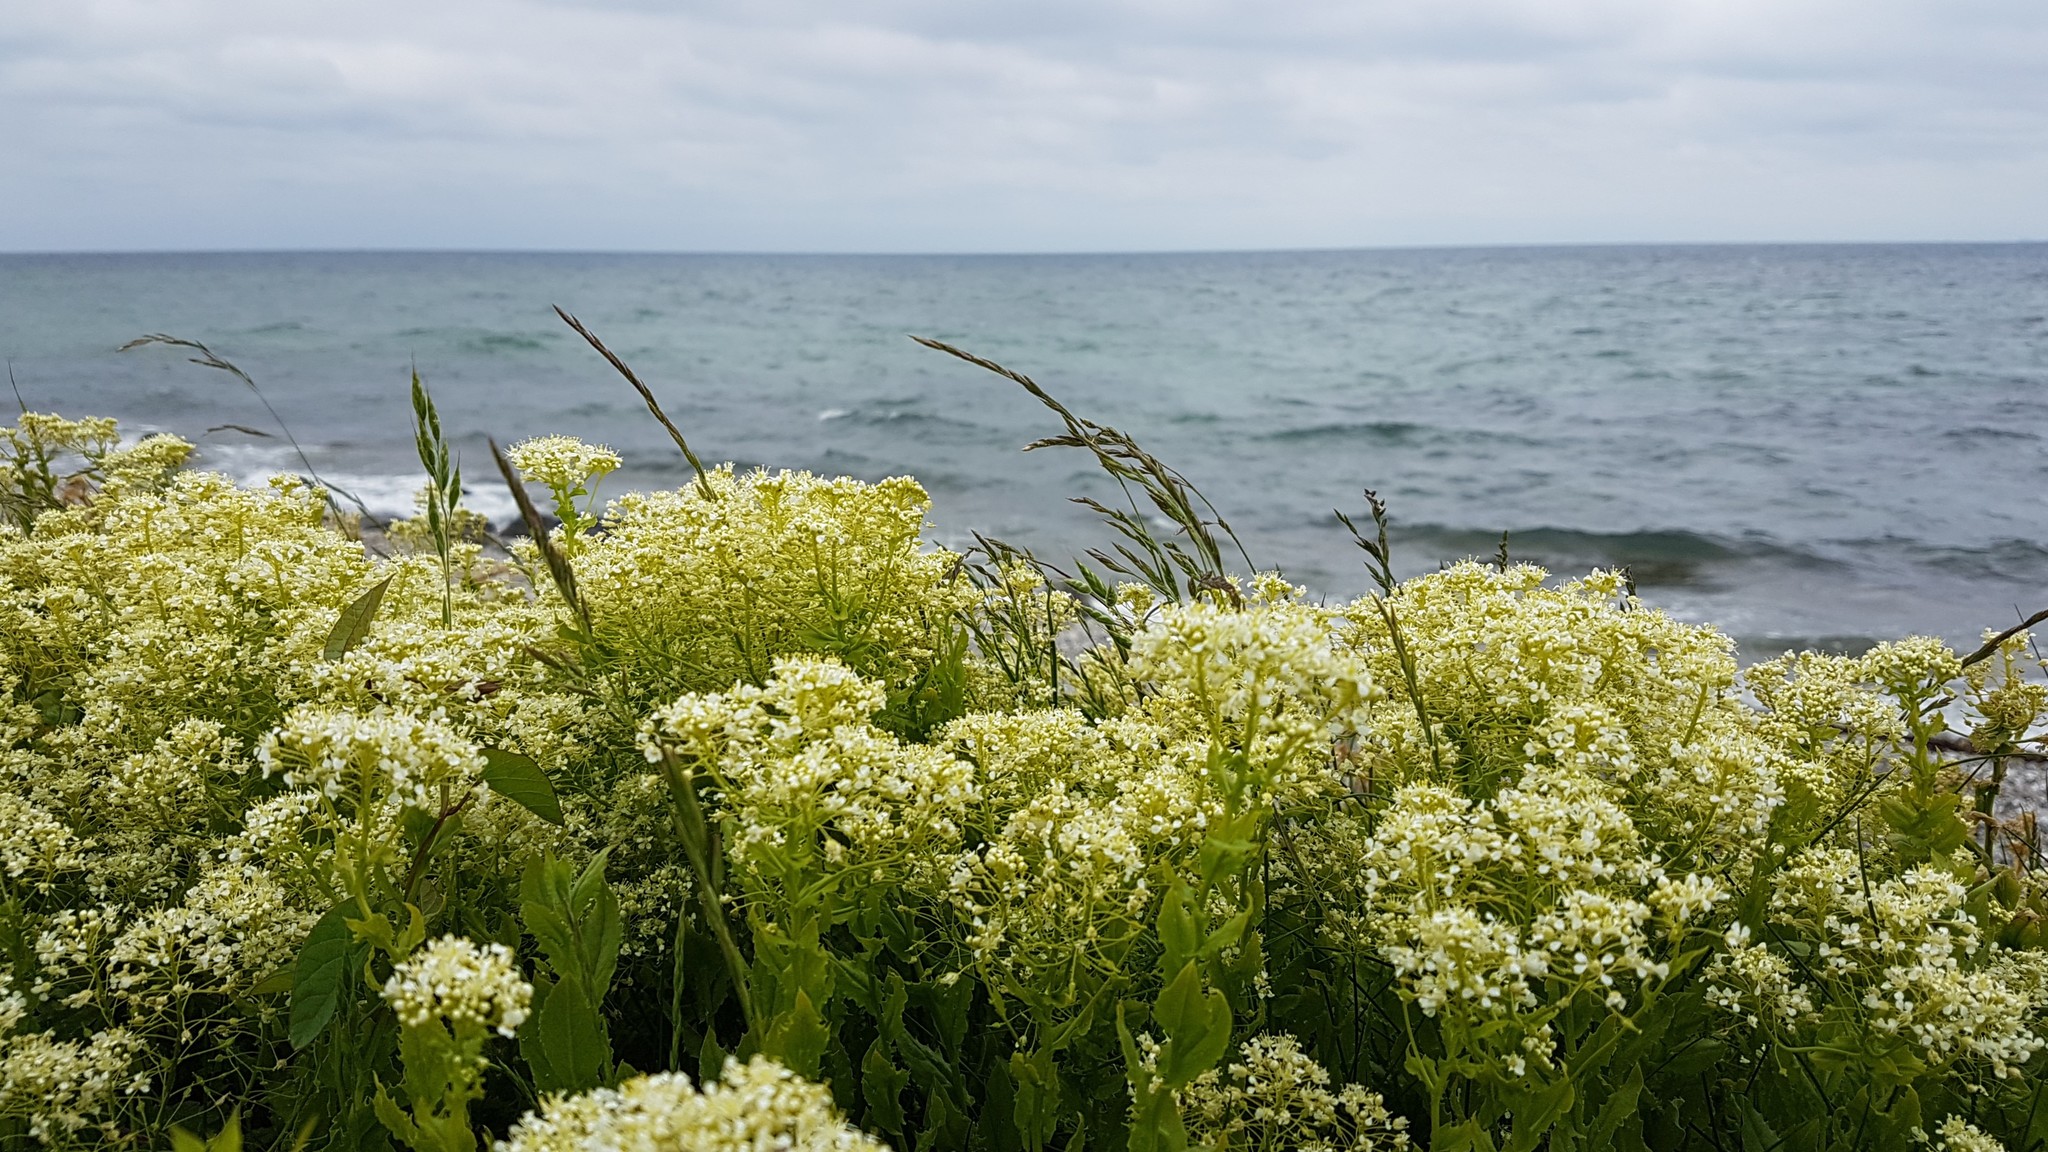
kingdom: Plantae
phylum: Tracheophyta
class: Magnoliopsida
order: Brassicales
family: Brassicaceae
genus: Lepidium
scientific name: Lepidium draba
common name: Hoary cress
